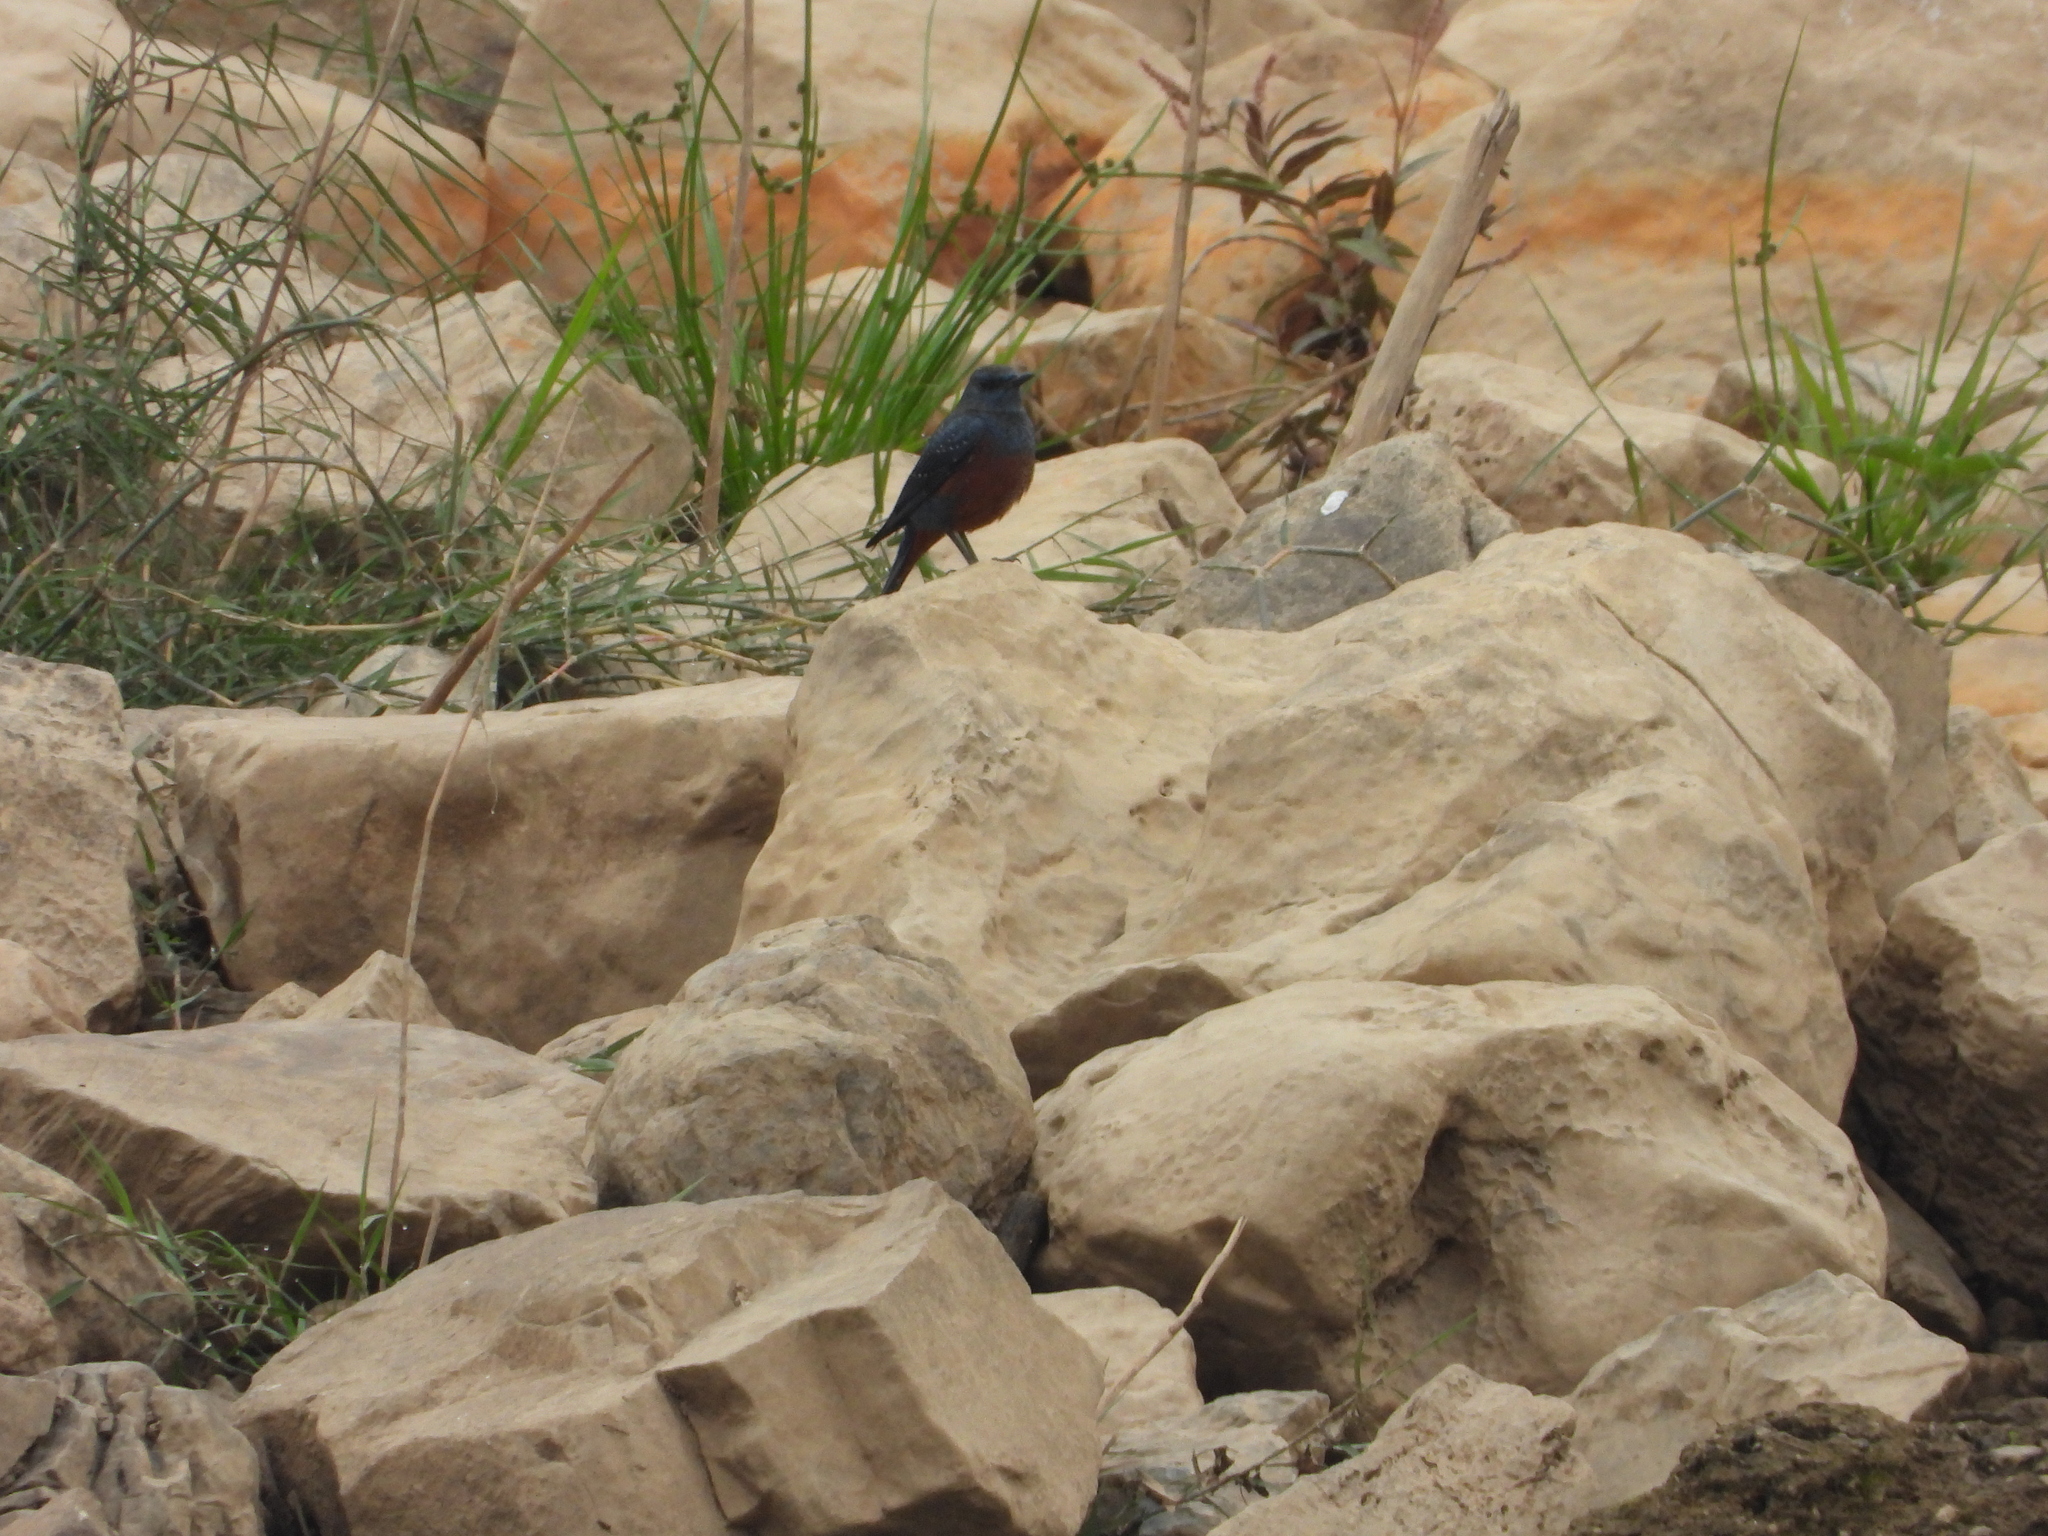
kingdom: Animalia
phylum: Chordata
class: Aves
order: Passeriformes
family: Muscicapidae
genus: Monticola
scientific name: Monticola solitarius
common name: Blue rock thrush
